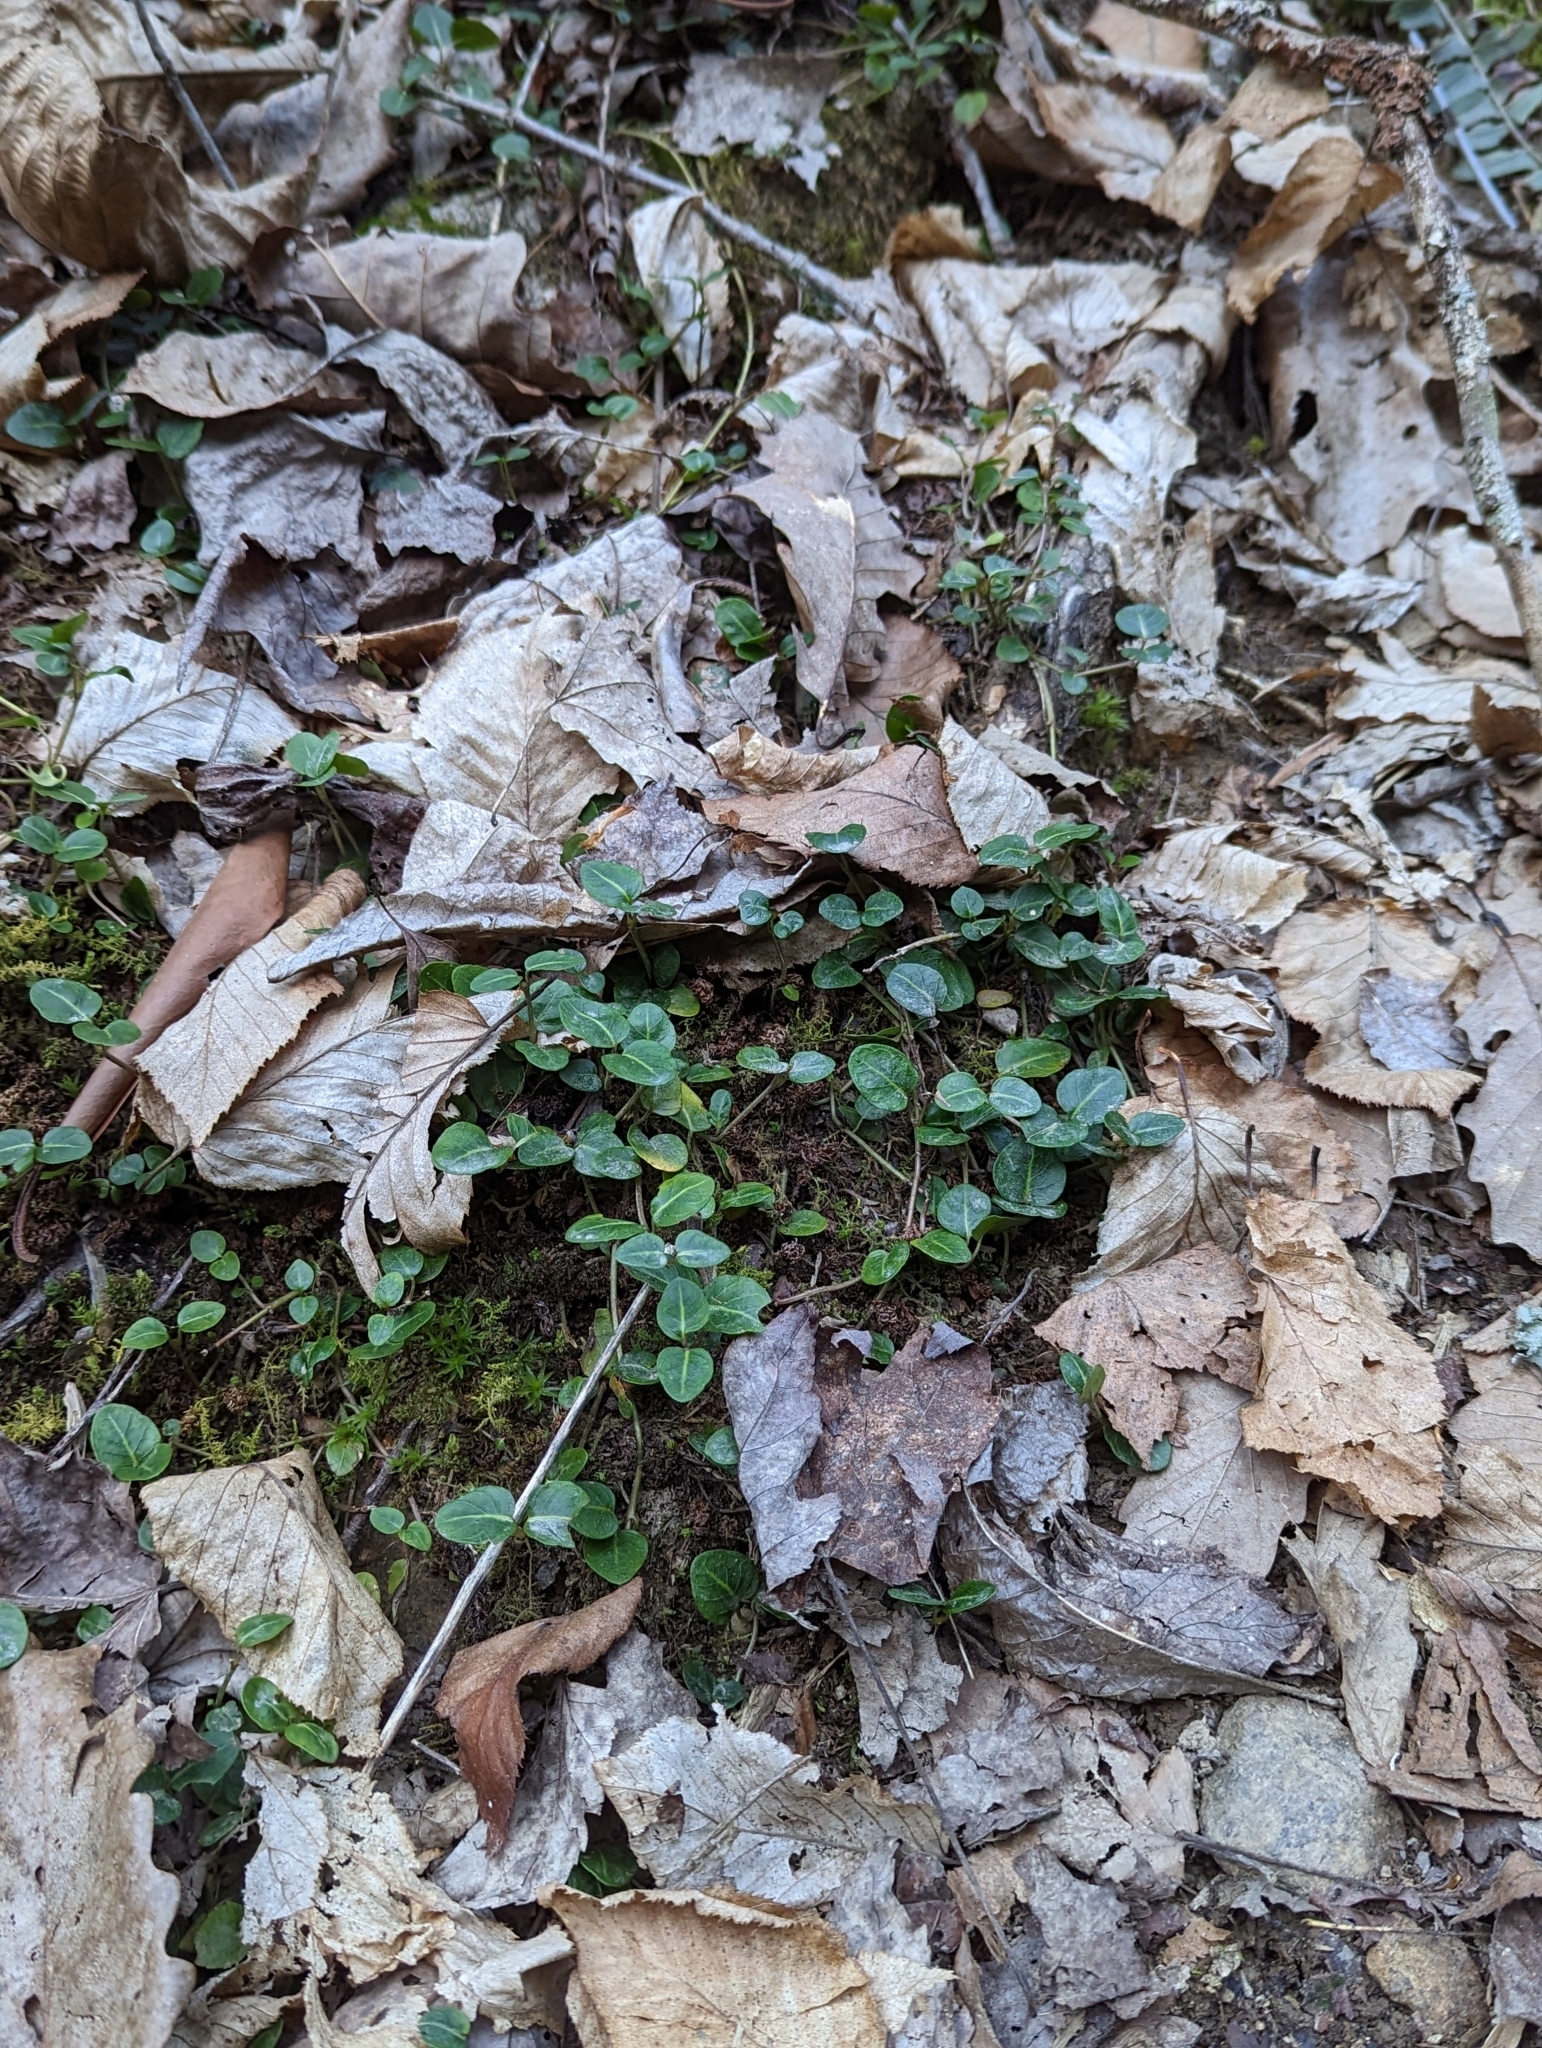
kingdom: Plantae
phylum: Tracheophyta
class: Magnoliopsida
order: Gentianales
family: Rubiaceae
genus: Mitchella
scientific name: Mitchella repens
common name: Partridge-berry
